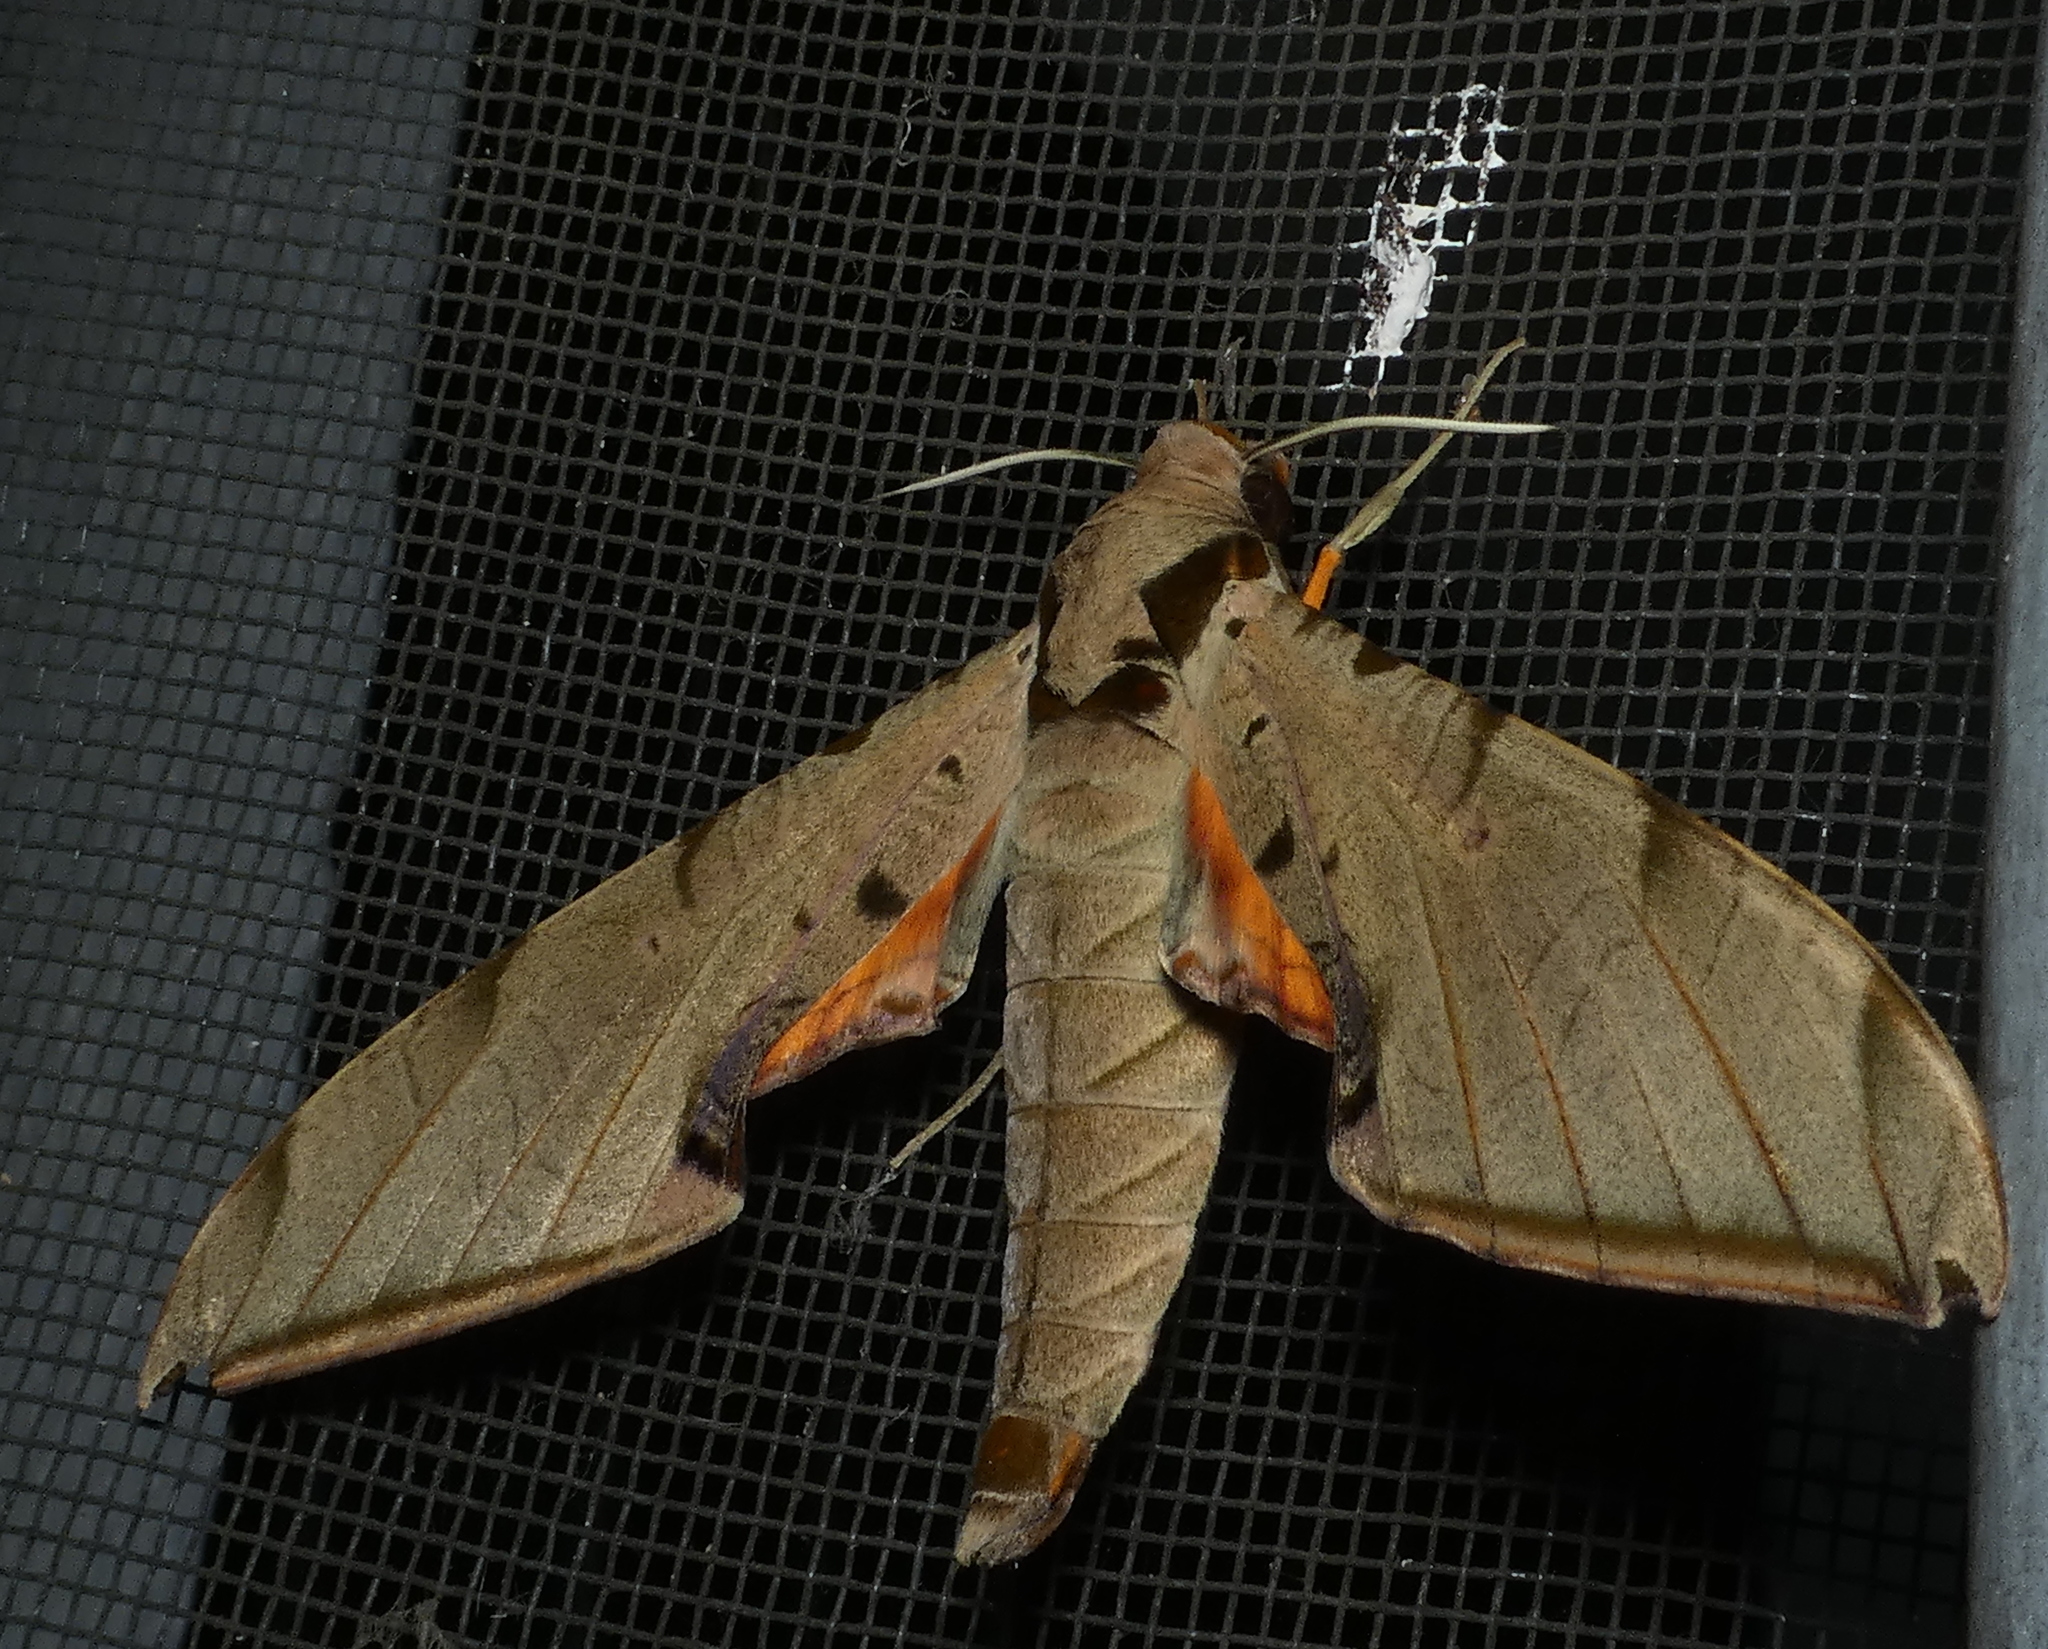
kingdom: Animalia
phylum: Arthropoda
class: Insecta
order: Lepidoptera
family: Sphingidae
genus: Protambulyx
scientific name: Protambulyx strigilis
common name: Streaked sphinx
